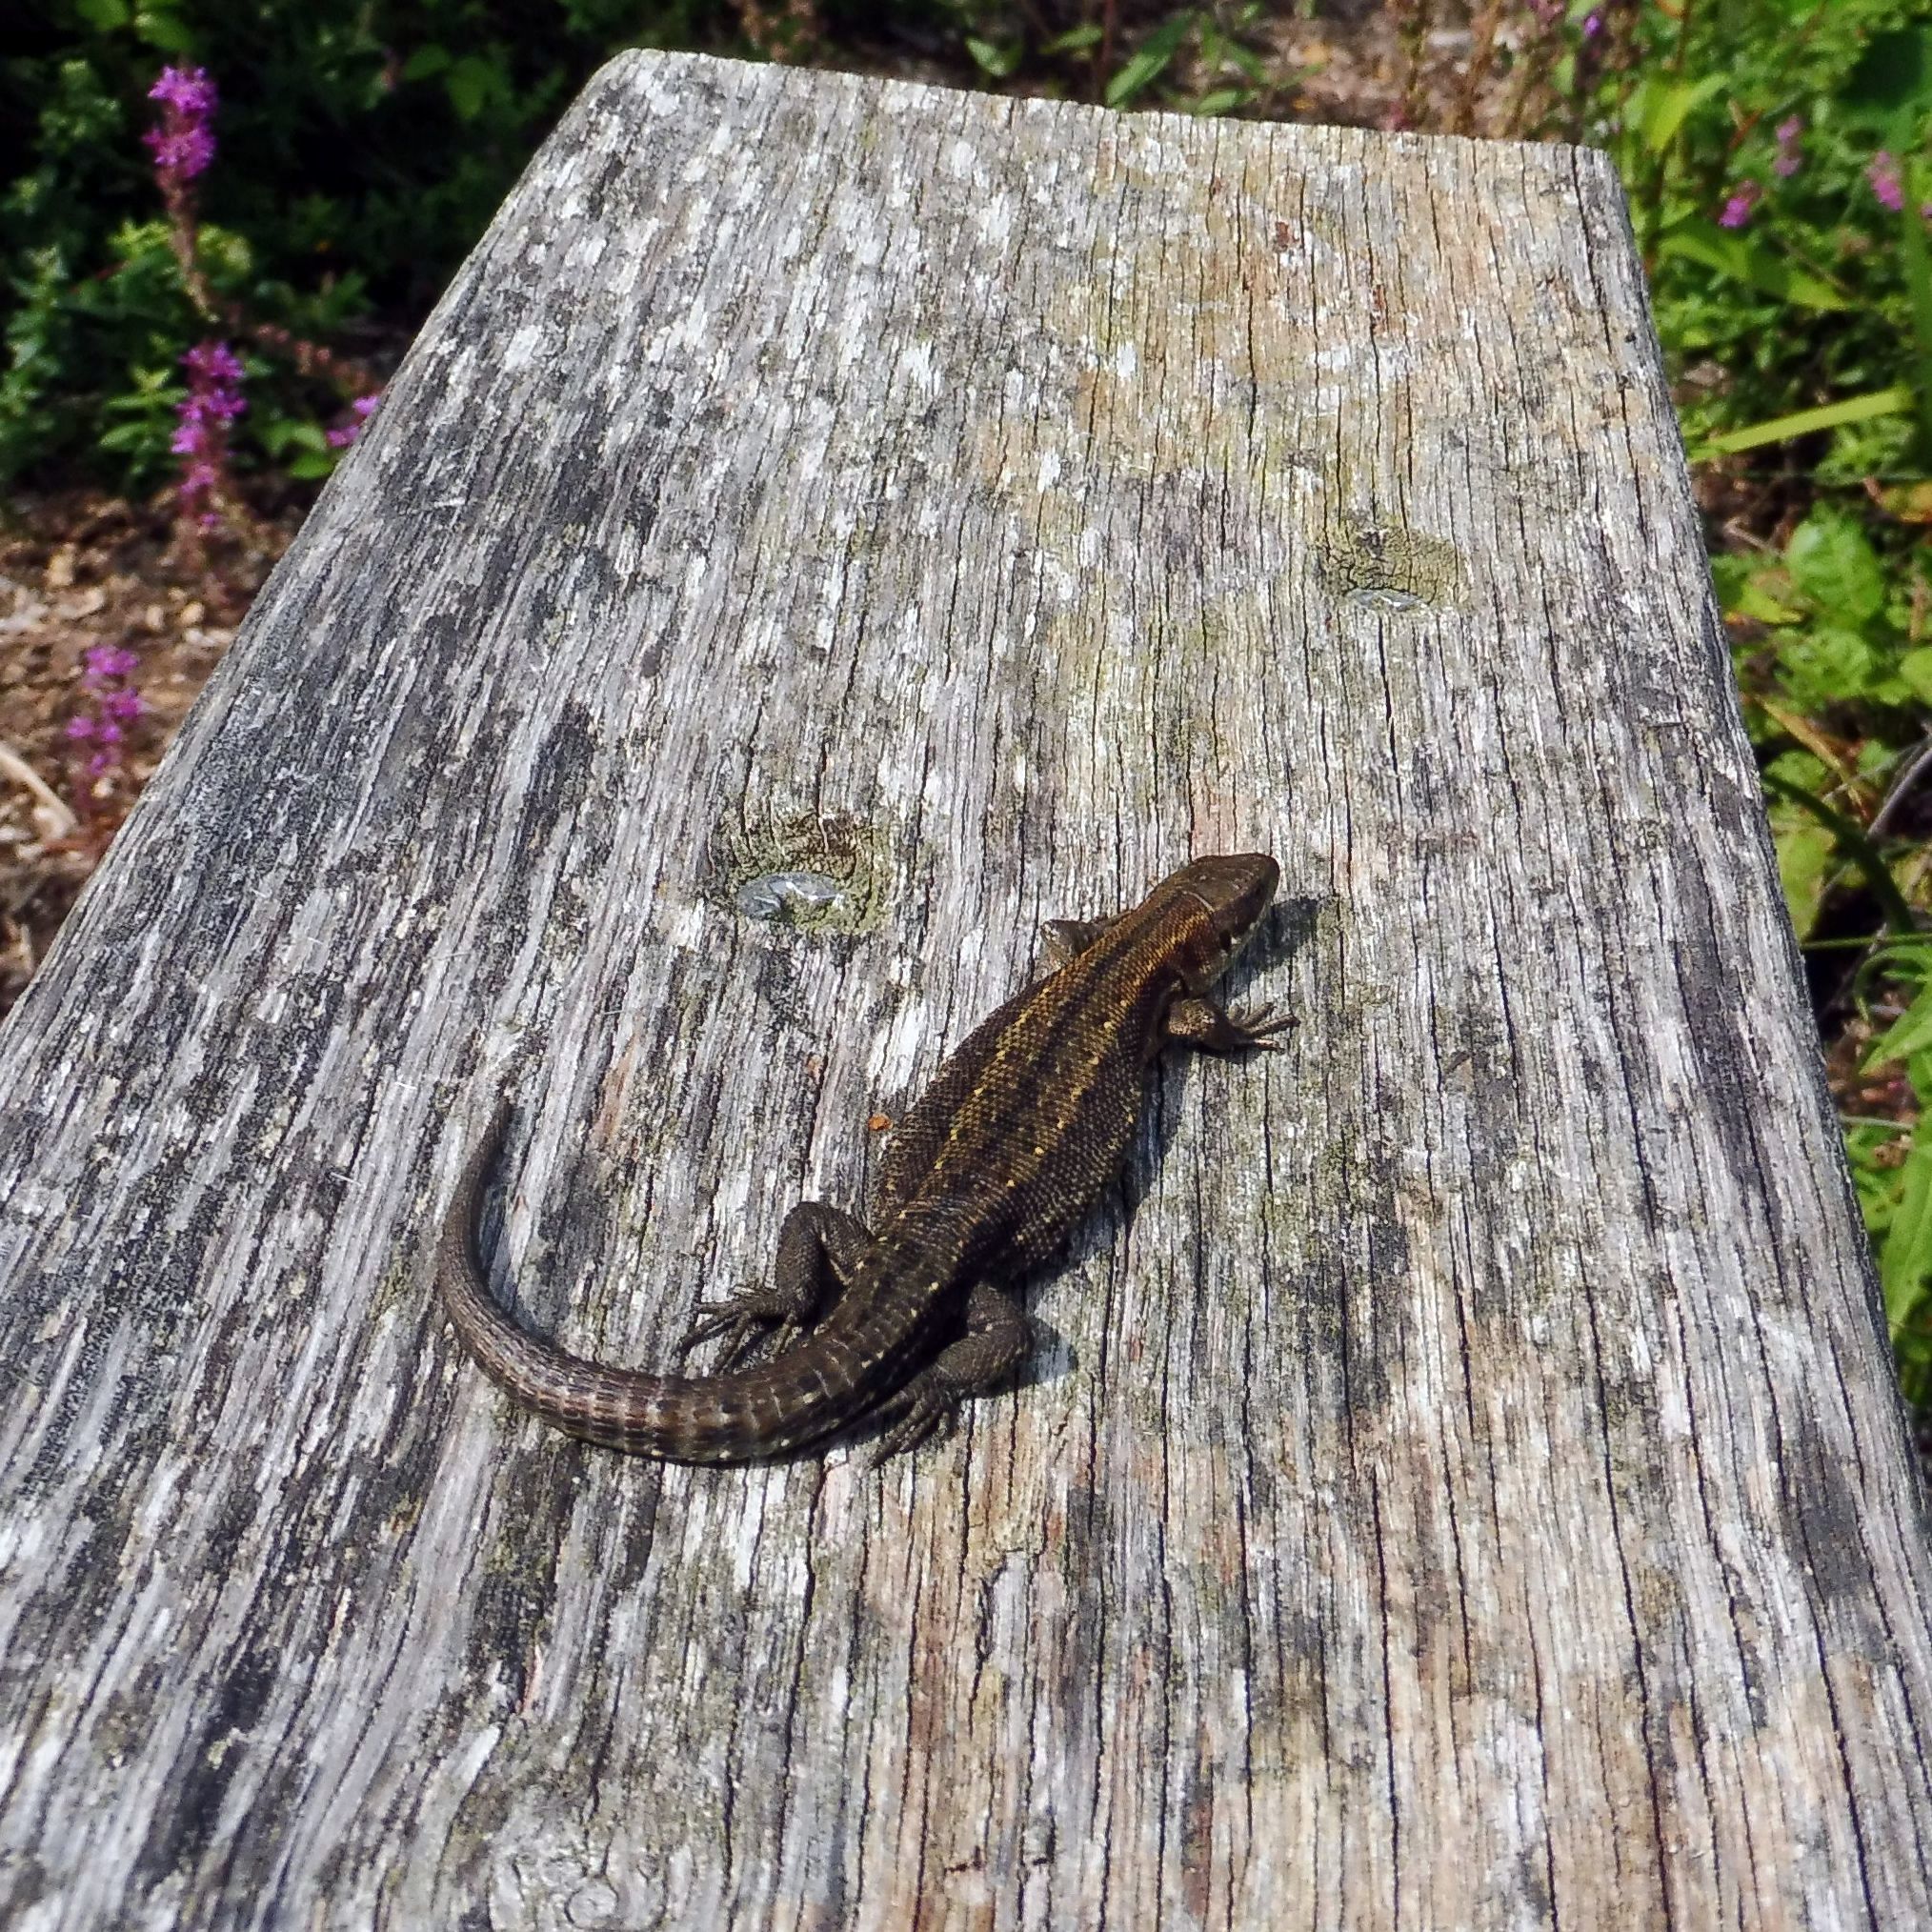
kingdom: Animalia
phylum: Chordata
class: Squamata
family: Lacertidae
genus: Zootoca
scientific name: Zootoca vivipara
